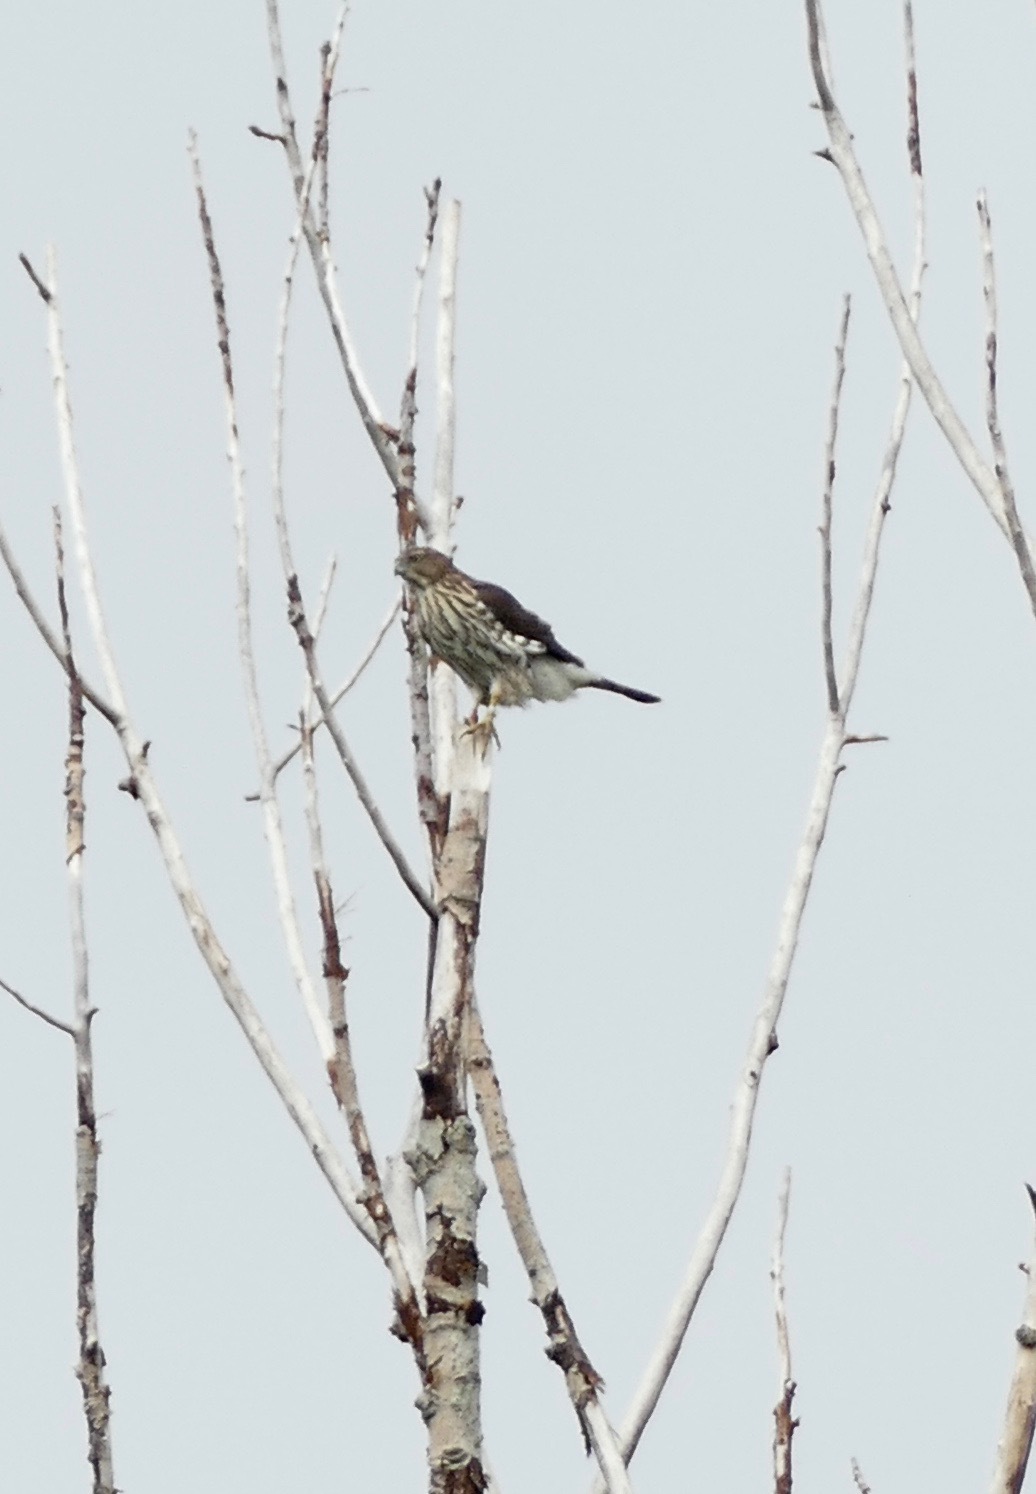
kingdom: Animalia
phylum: Chordata
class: Aves
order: Accipitriformes
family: Accipitridae
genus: Accipiter
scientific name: Accipiter cooperii
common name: Cooper's hawk
